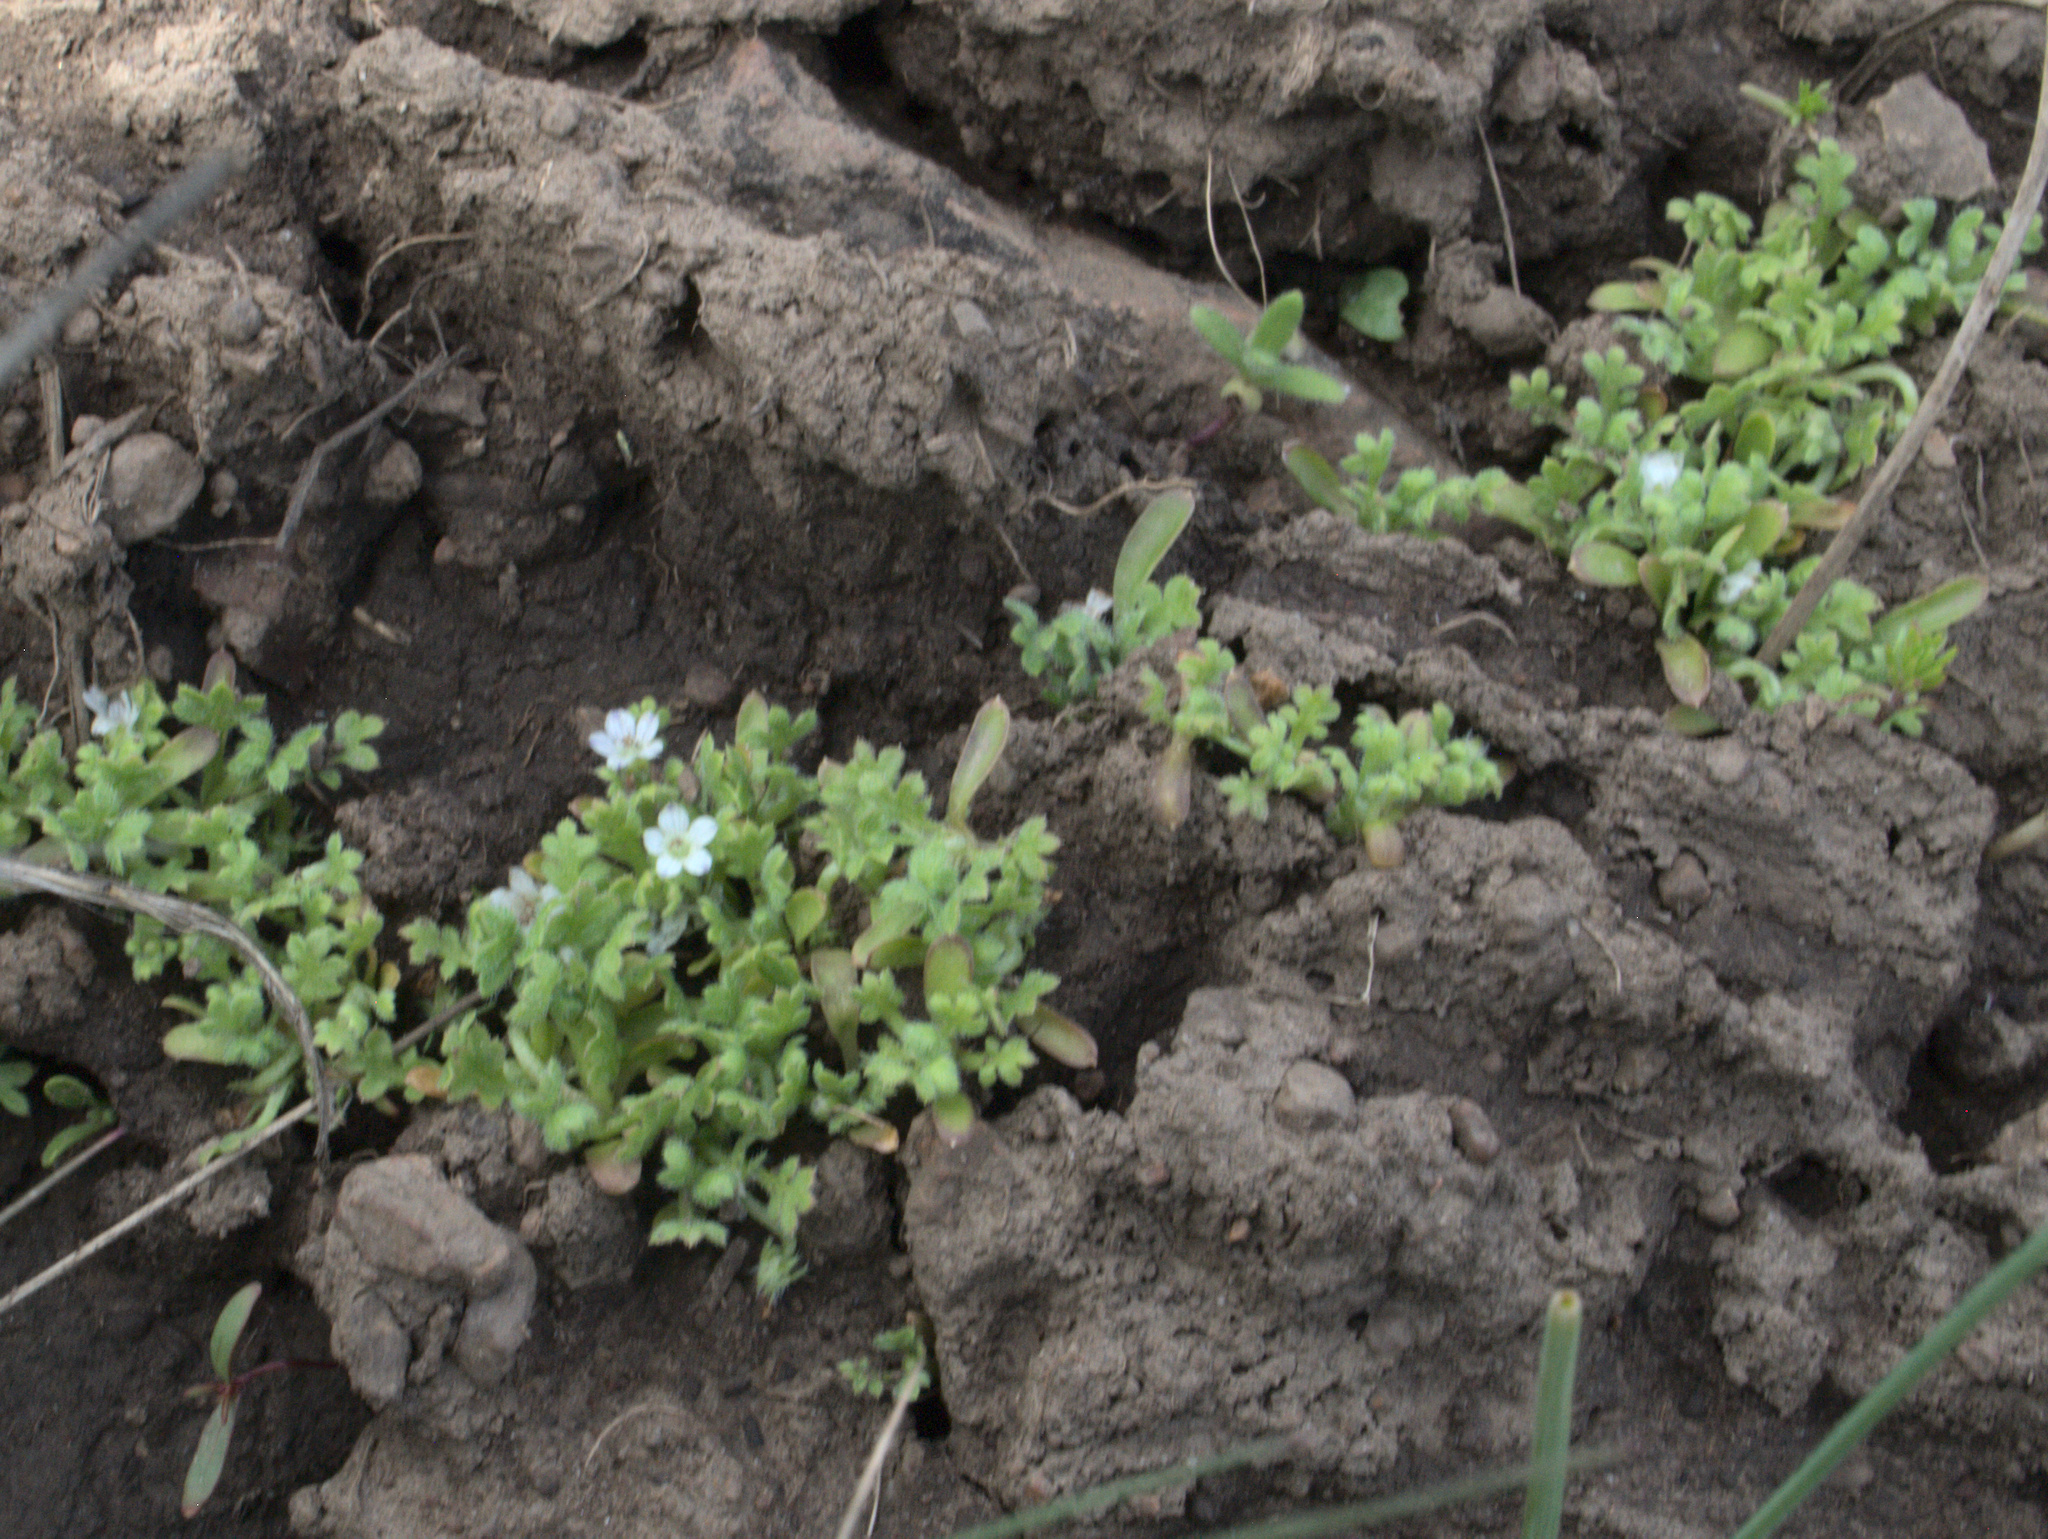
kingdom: Plantae
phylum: Tracheophyta
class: Magnoliopsida
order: Boraginales
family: Hydrophyllaceae
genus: Nemophila
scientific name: Nemophila pedunculata
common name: Little-foot baby-blue-eyes
